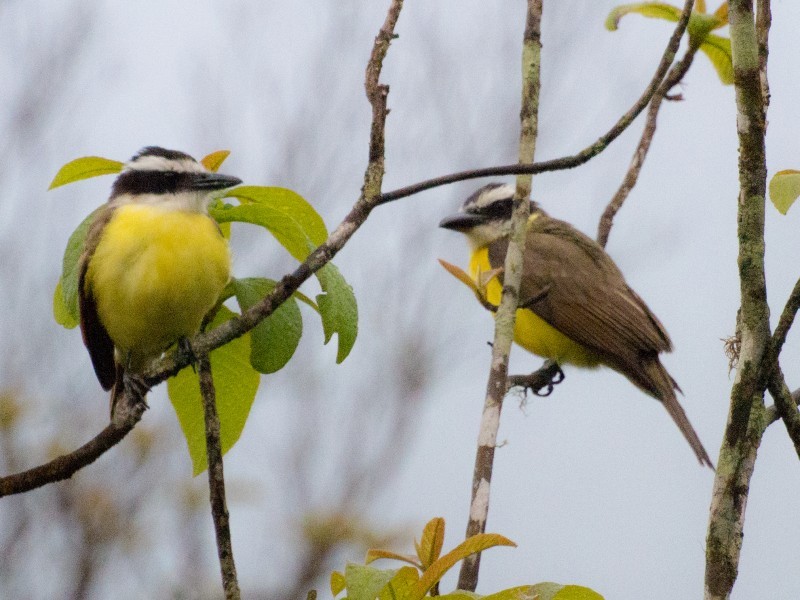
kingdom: Animalia
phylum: Chordata
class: Aves
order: Passeriformes
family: Tyrannidae
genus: Pitangus
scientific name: Pitangus sulphuratus
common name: Great kiskadee
